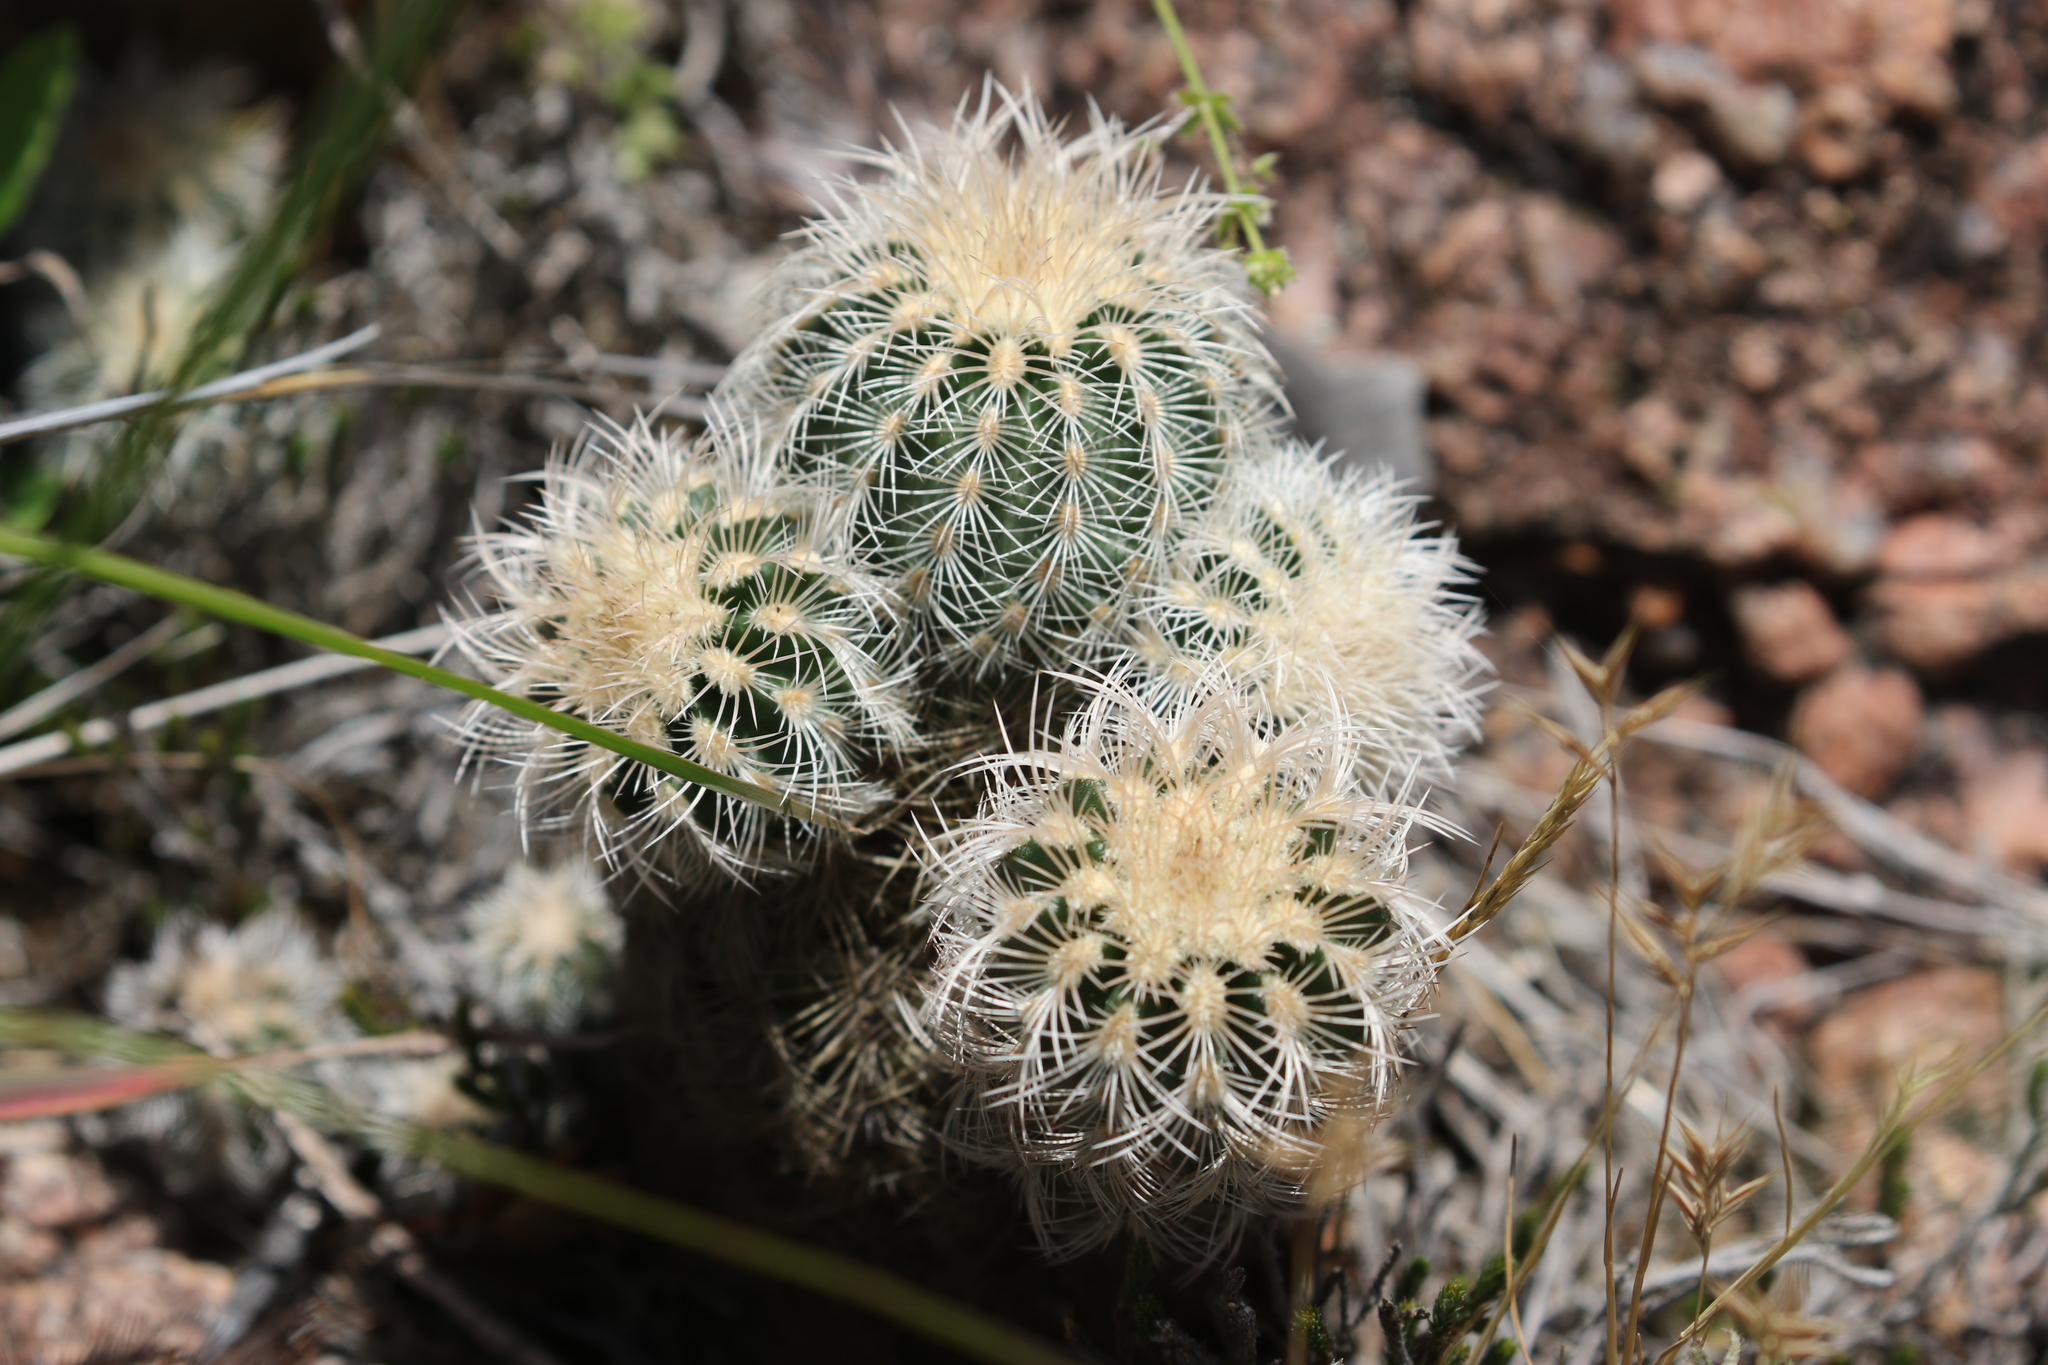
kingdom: Plantae
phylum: Tracheophyta
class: Magnoliopsida
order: Caryophyllales
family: Cactaceae
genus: Echinocereus
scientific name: Echinocereus reichenbachii
